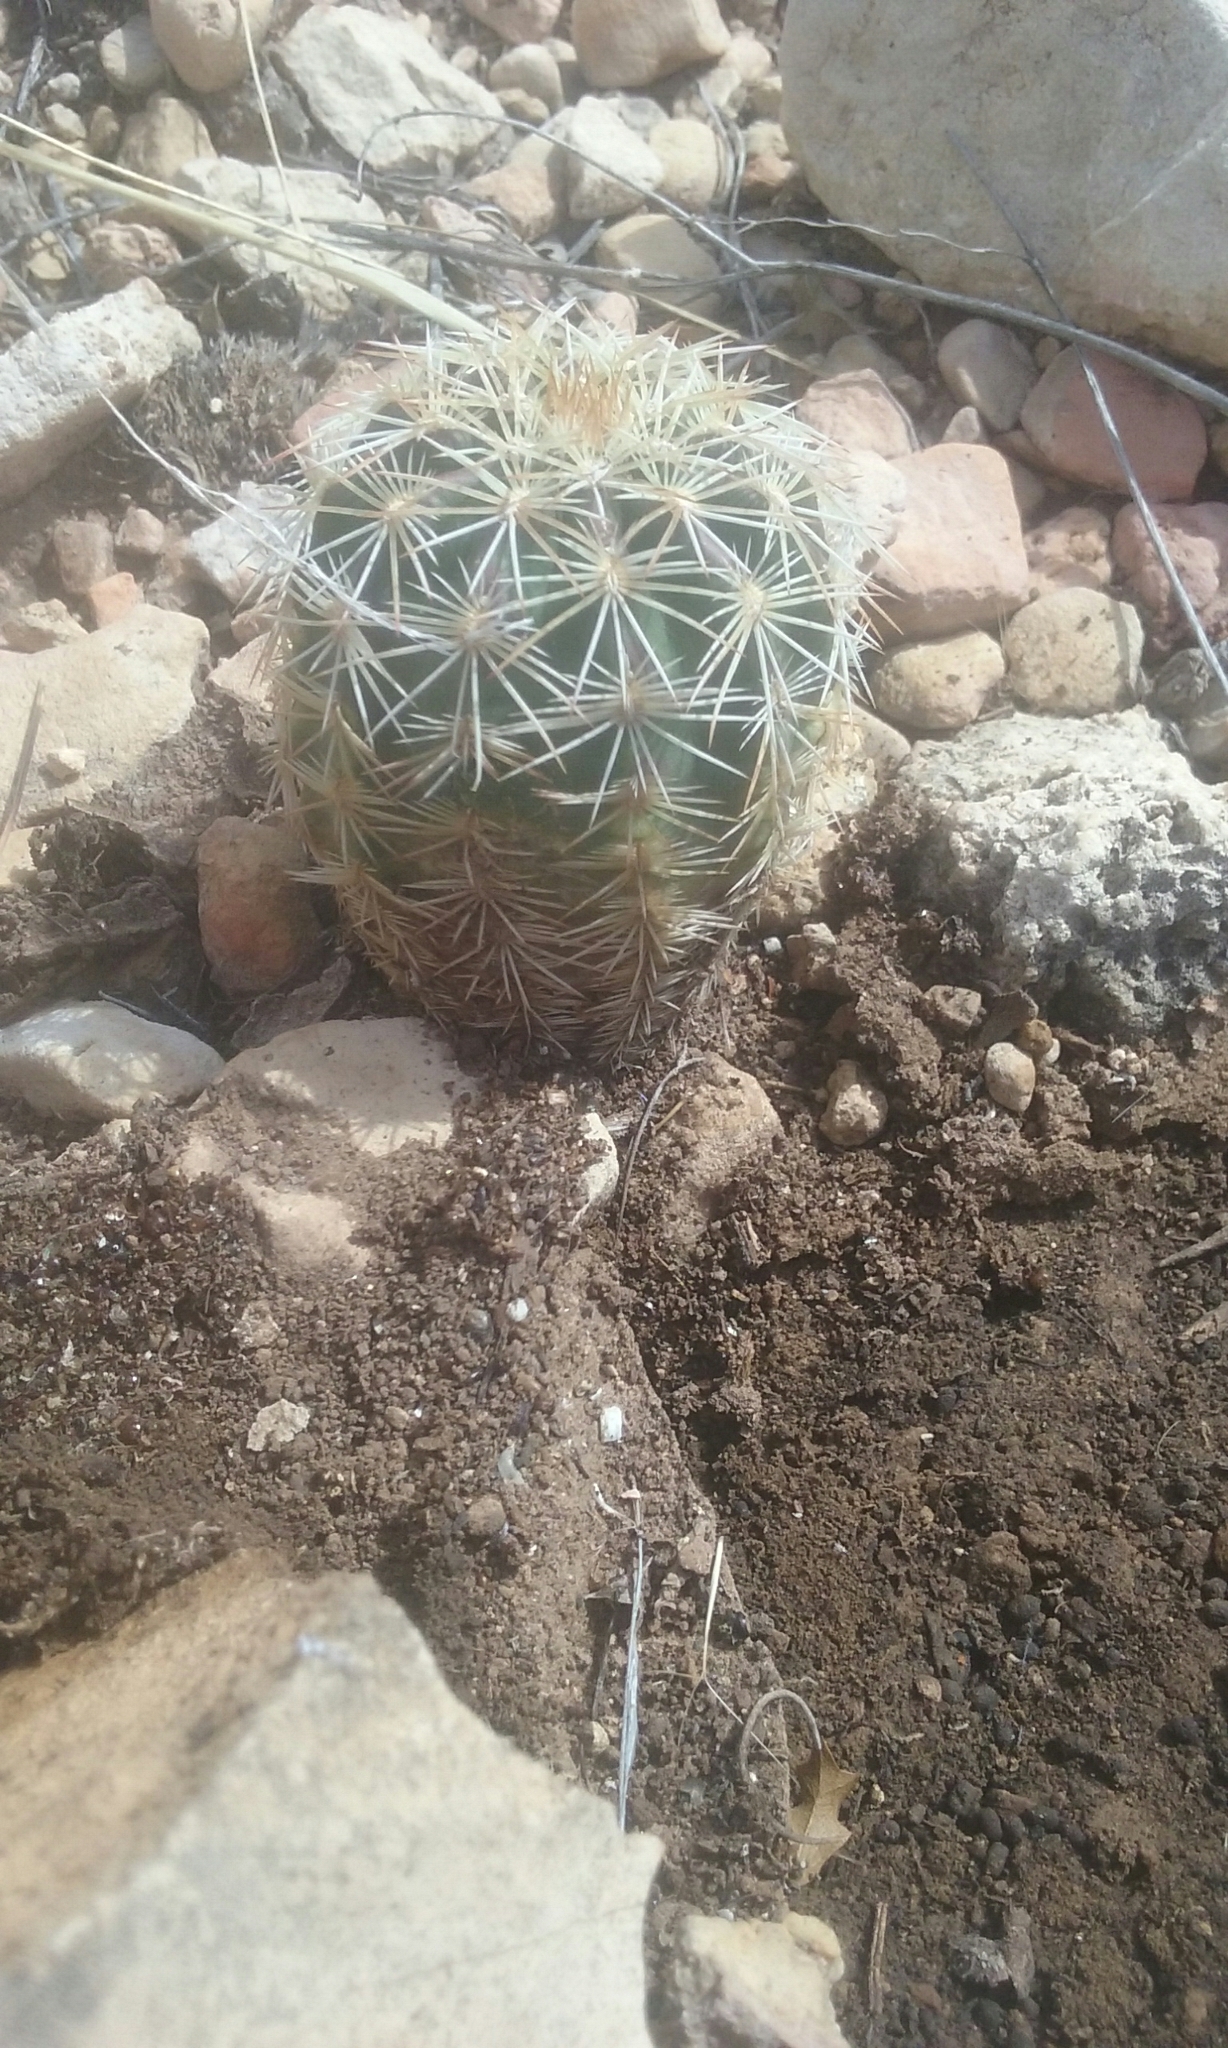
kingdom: Plantae
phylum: Tracheophyta
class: Magnoliopsida
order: Caryophyllales
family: Cactaceae
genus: Echinocereus
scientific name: Echinocereus viridiflorus
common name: Nylon hedgehog cactus
